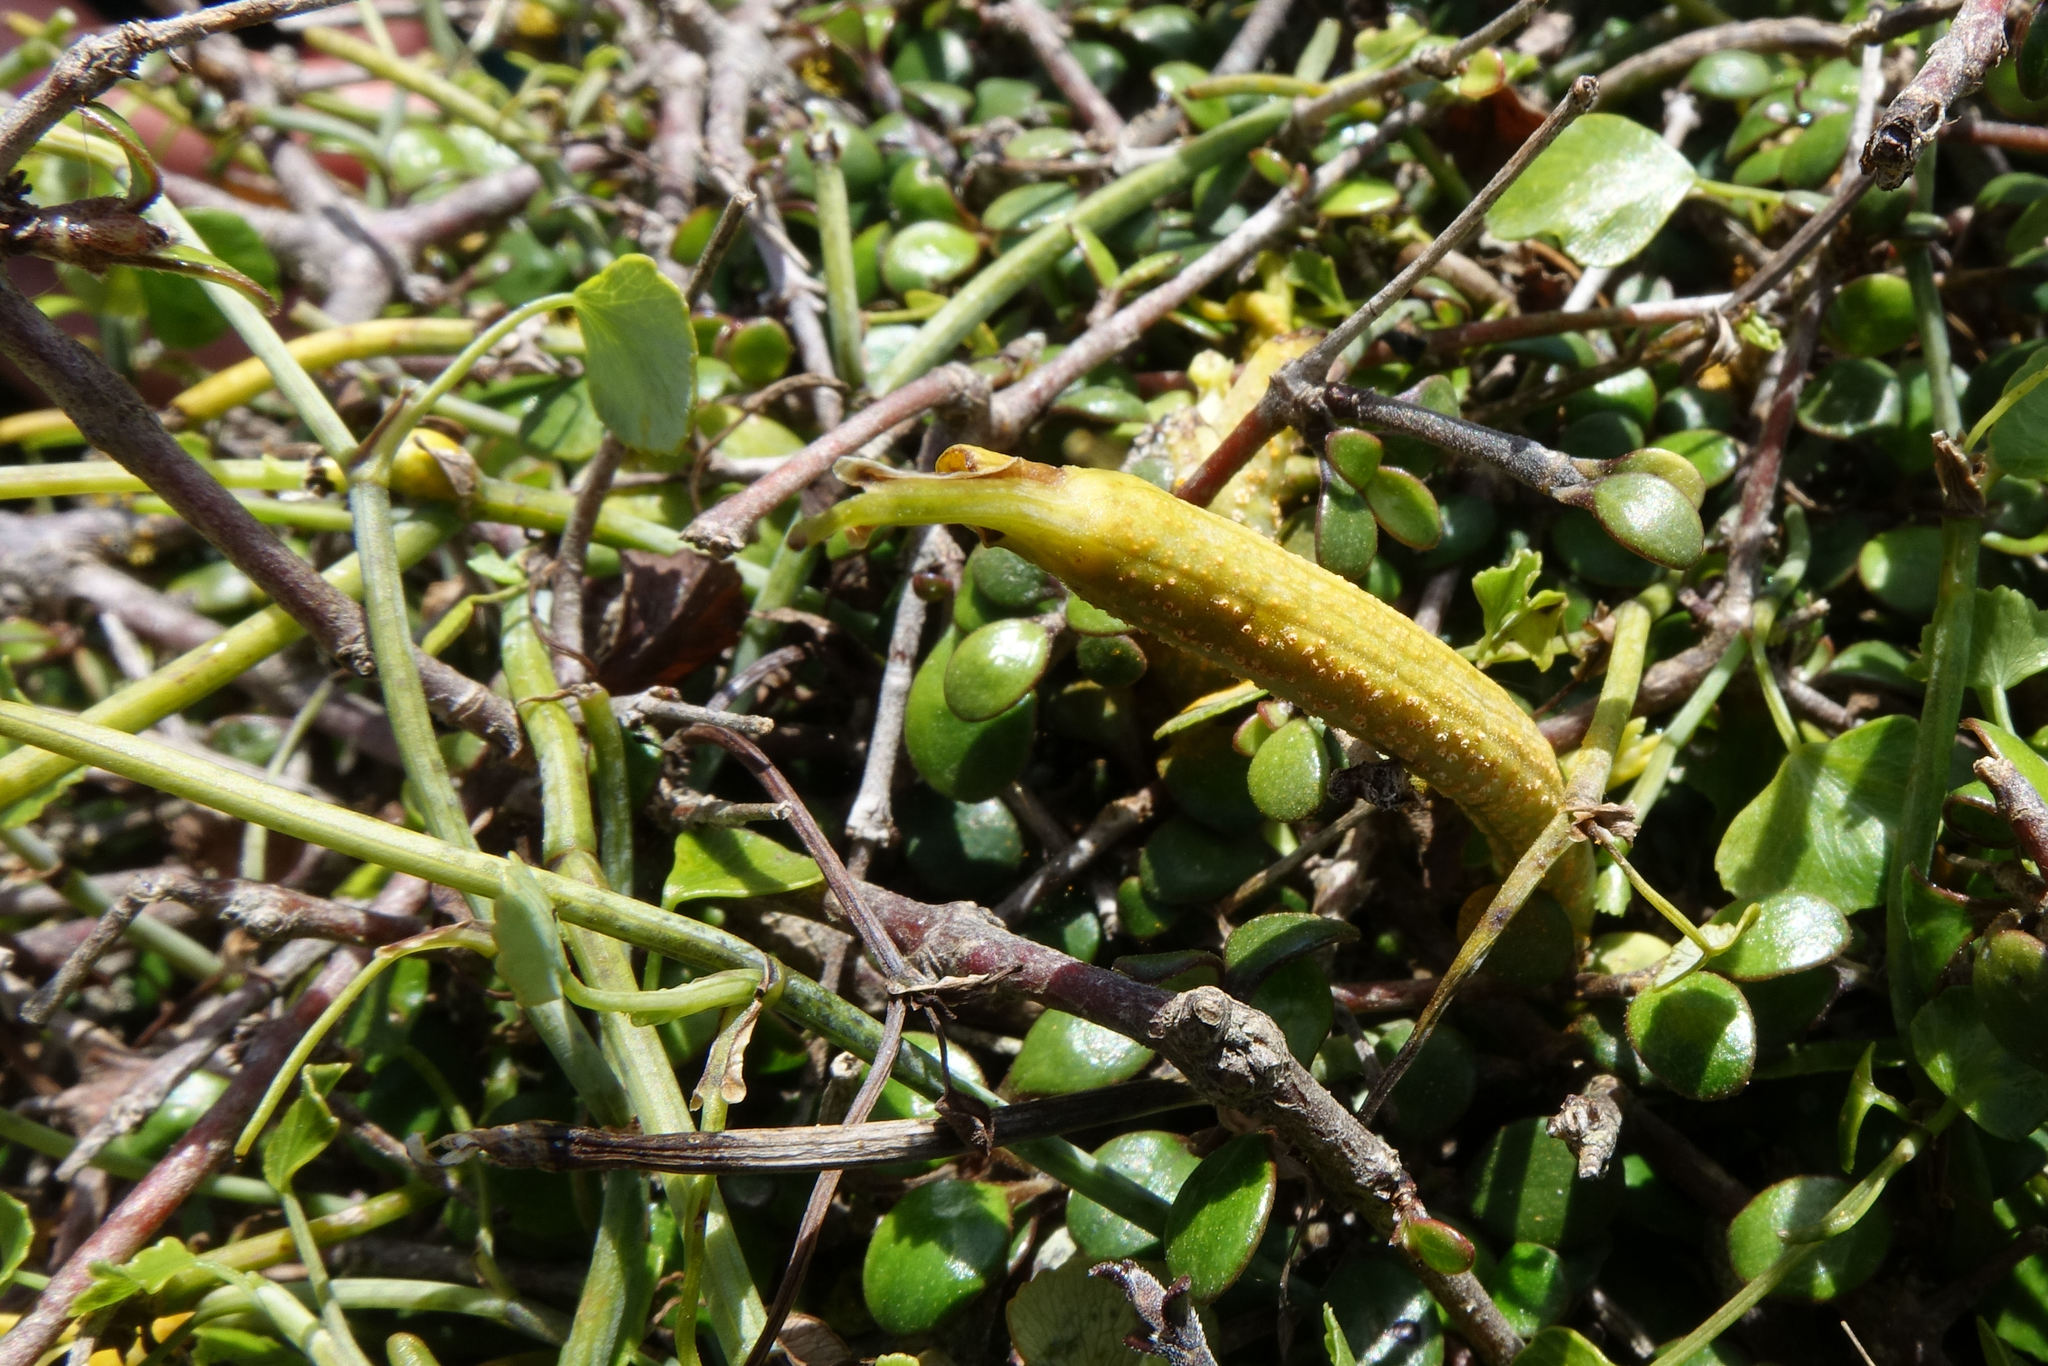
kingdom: Fungi
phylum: Basidiomycota
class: Pucciniomycetes
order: Pucciniales
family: Pucciniaceae
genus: Puccinia
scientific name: Puccinia kinseyi
